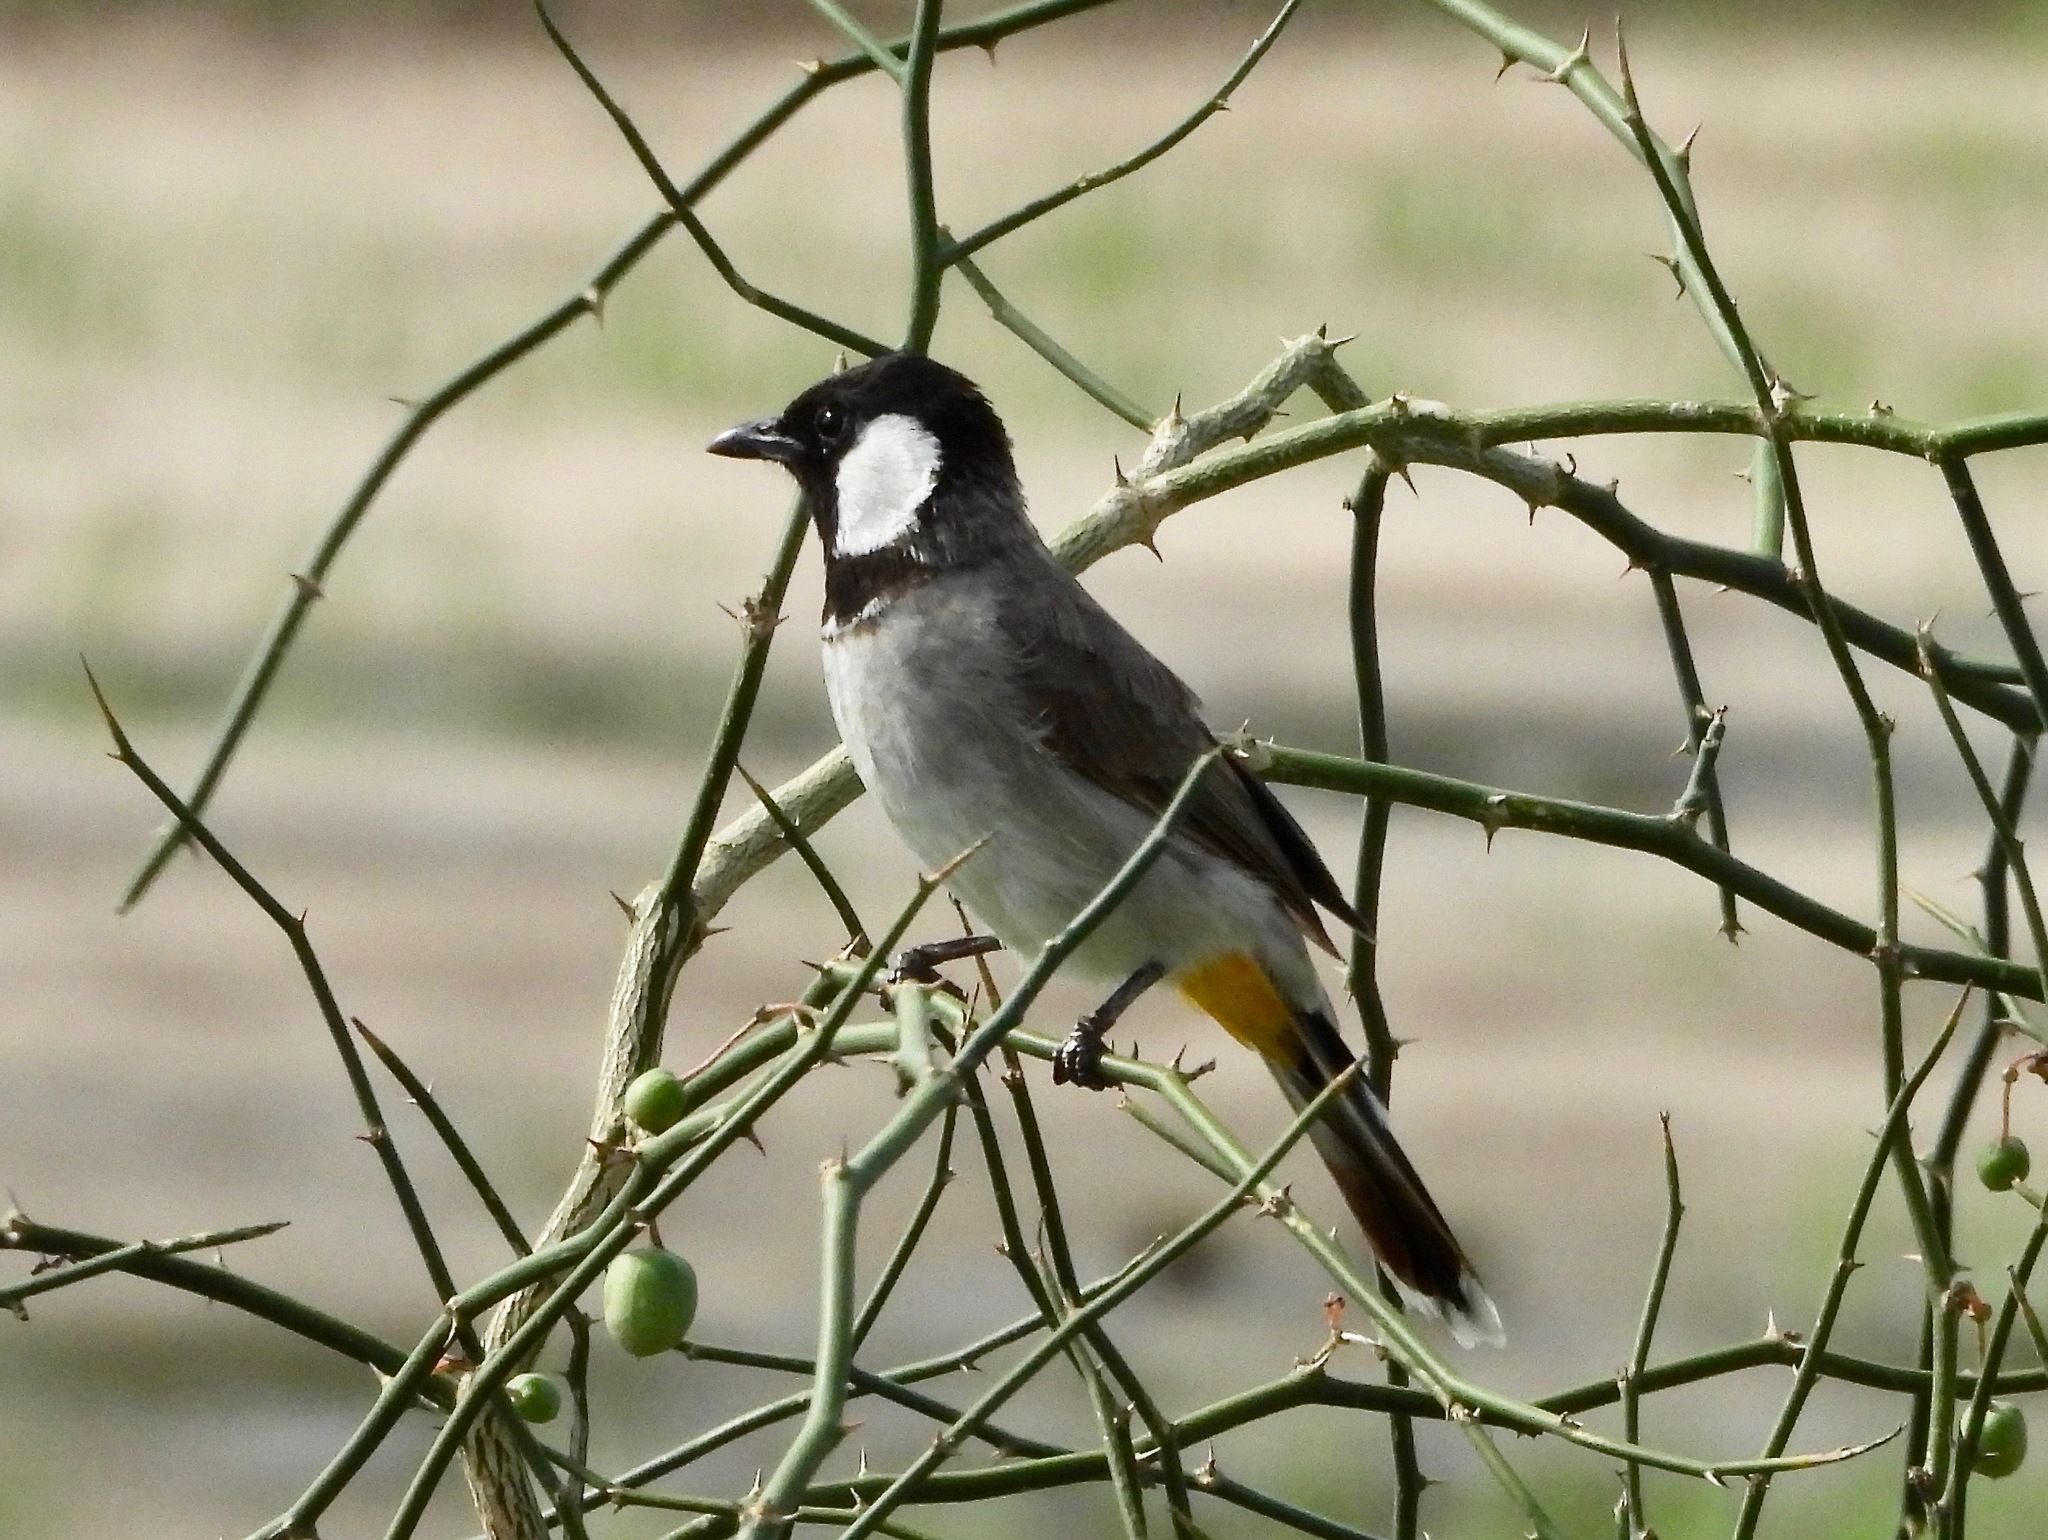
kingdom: Animalia
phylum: Chordata
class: Aves
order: Passeriformes
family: Pycnonotidae
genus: Pycnonotus
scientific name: Pycnonotus leucotis
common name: White-eared bulbul
